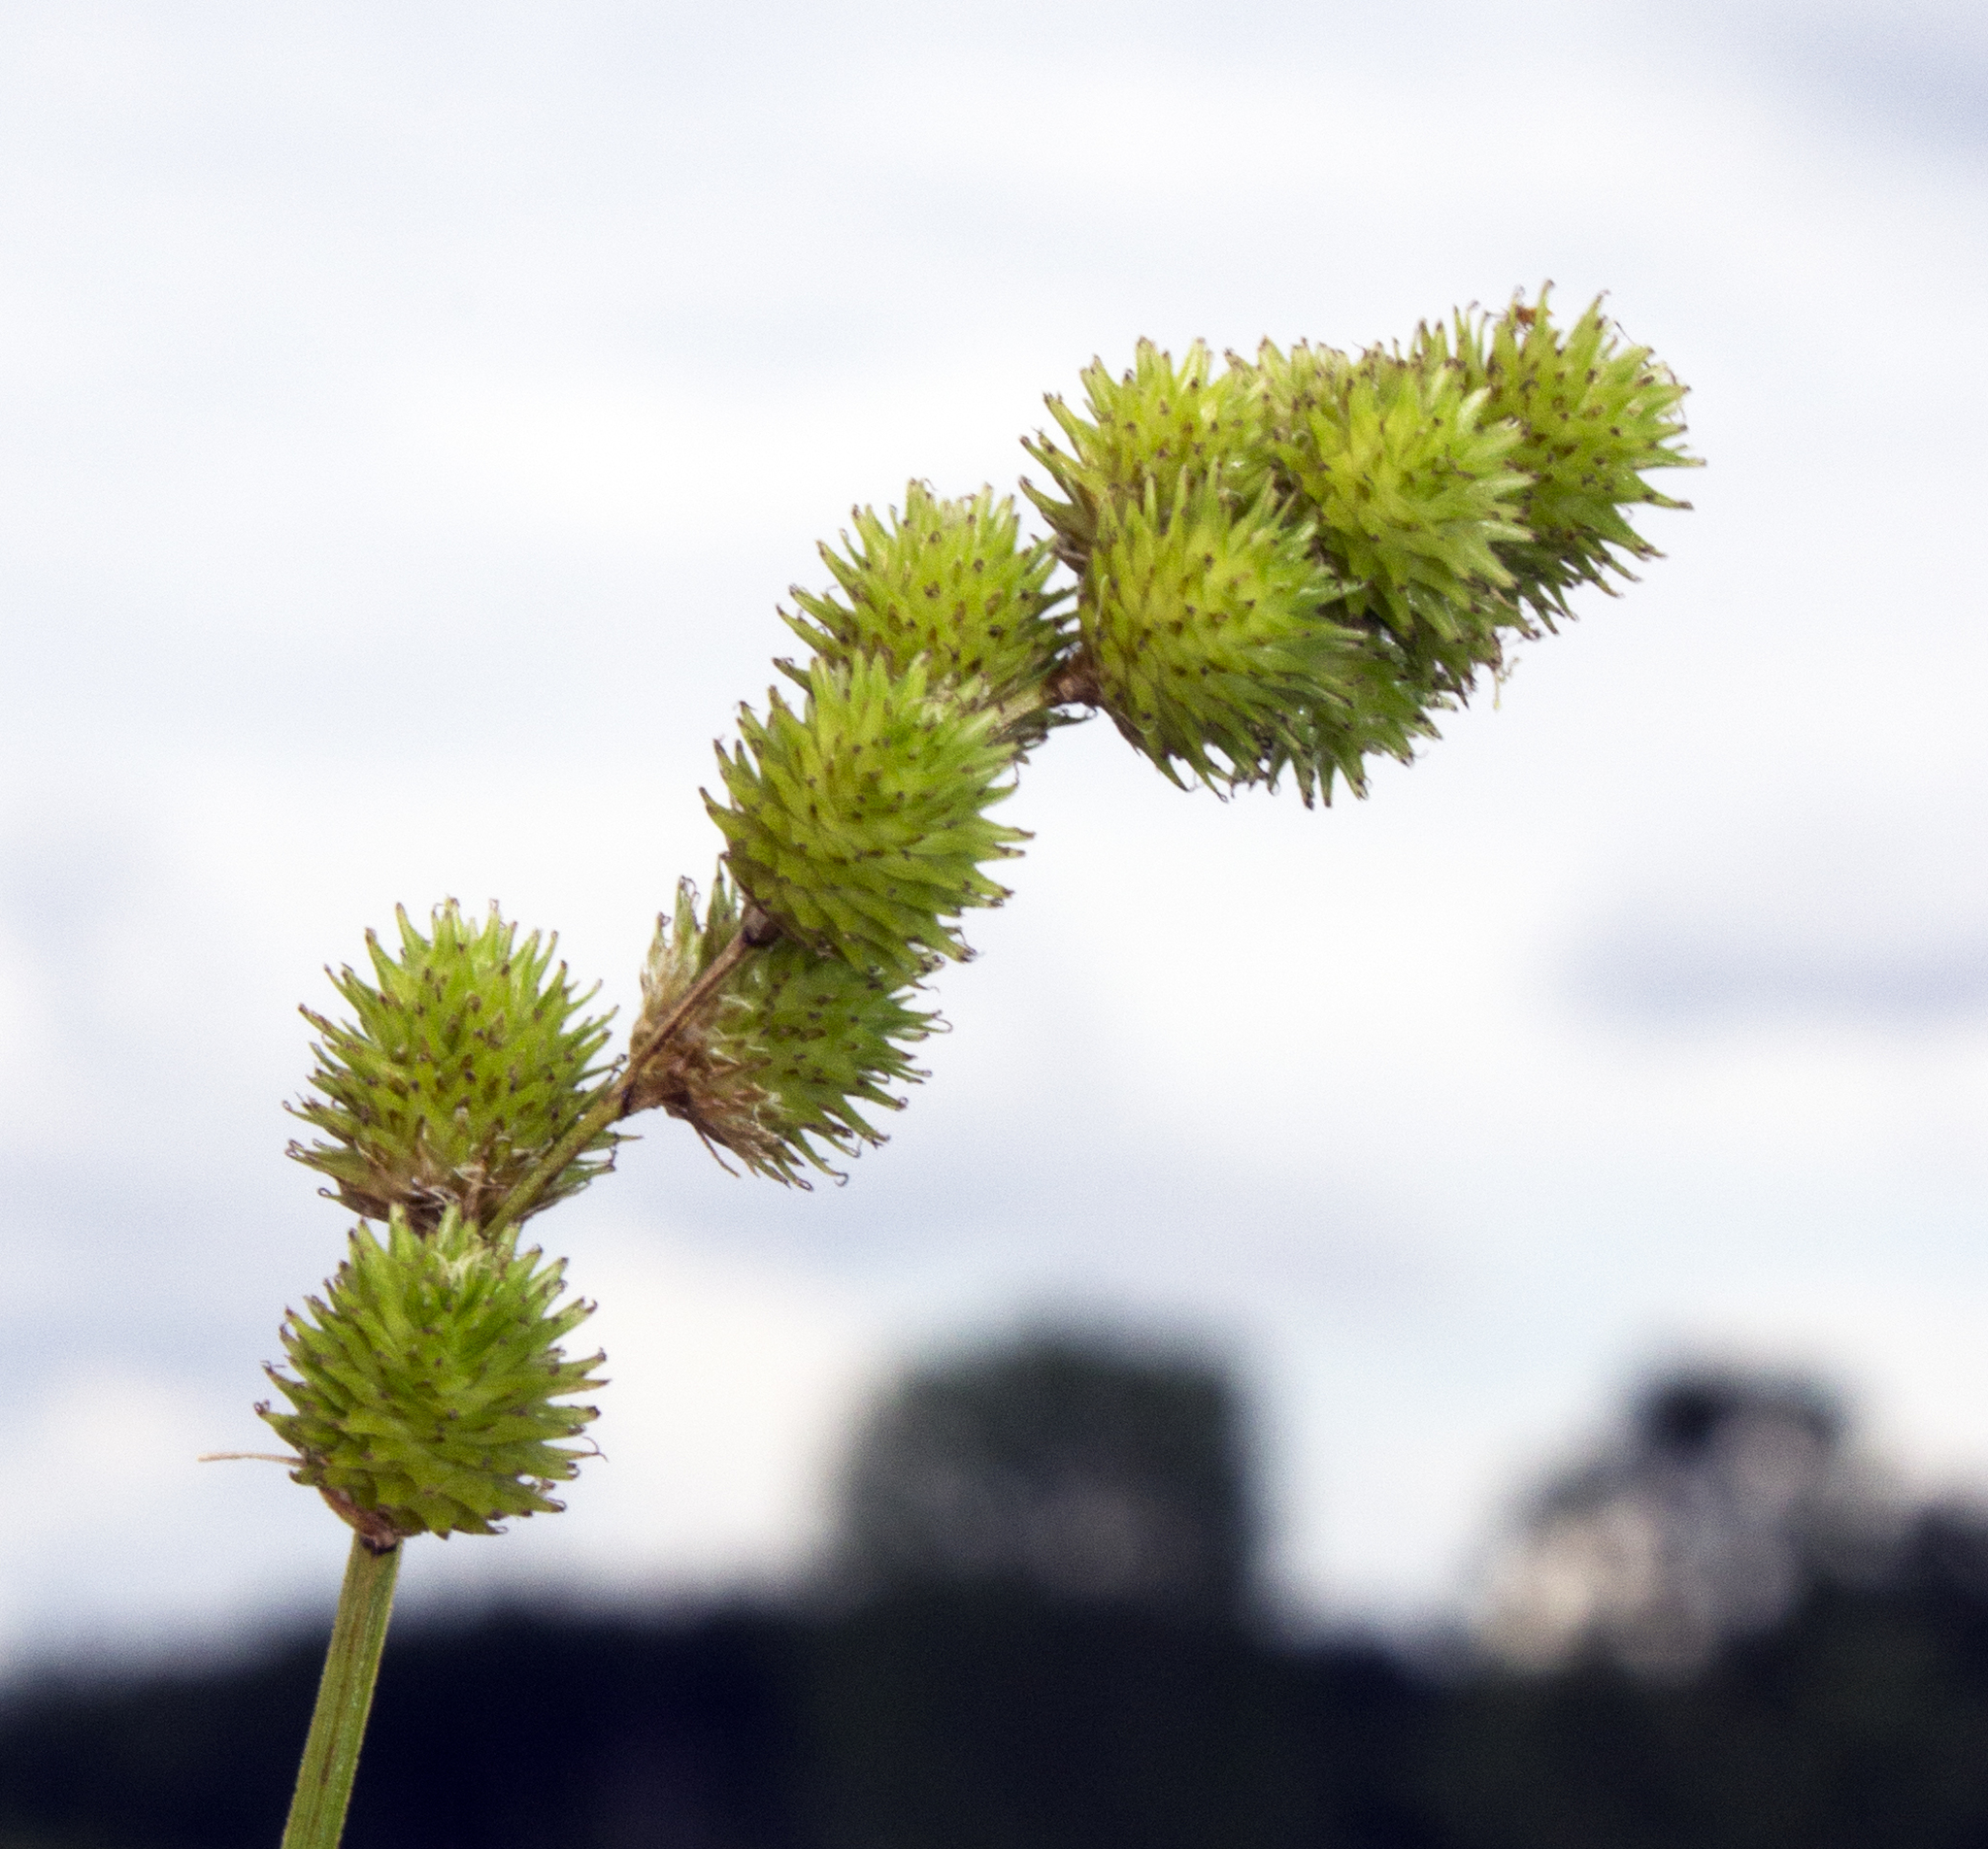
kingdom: Plantae
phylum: Tracheophyta
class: Liliopsida
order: Poales
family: Cyperaceae
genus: Carex
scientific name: Carex cristatella
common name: Crested oval sedge
